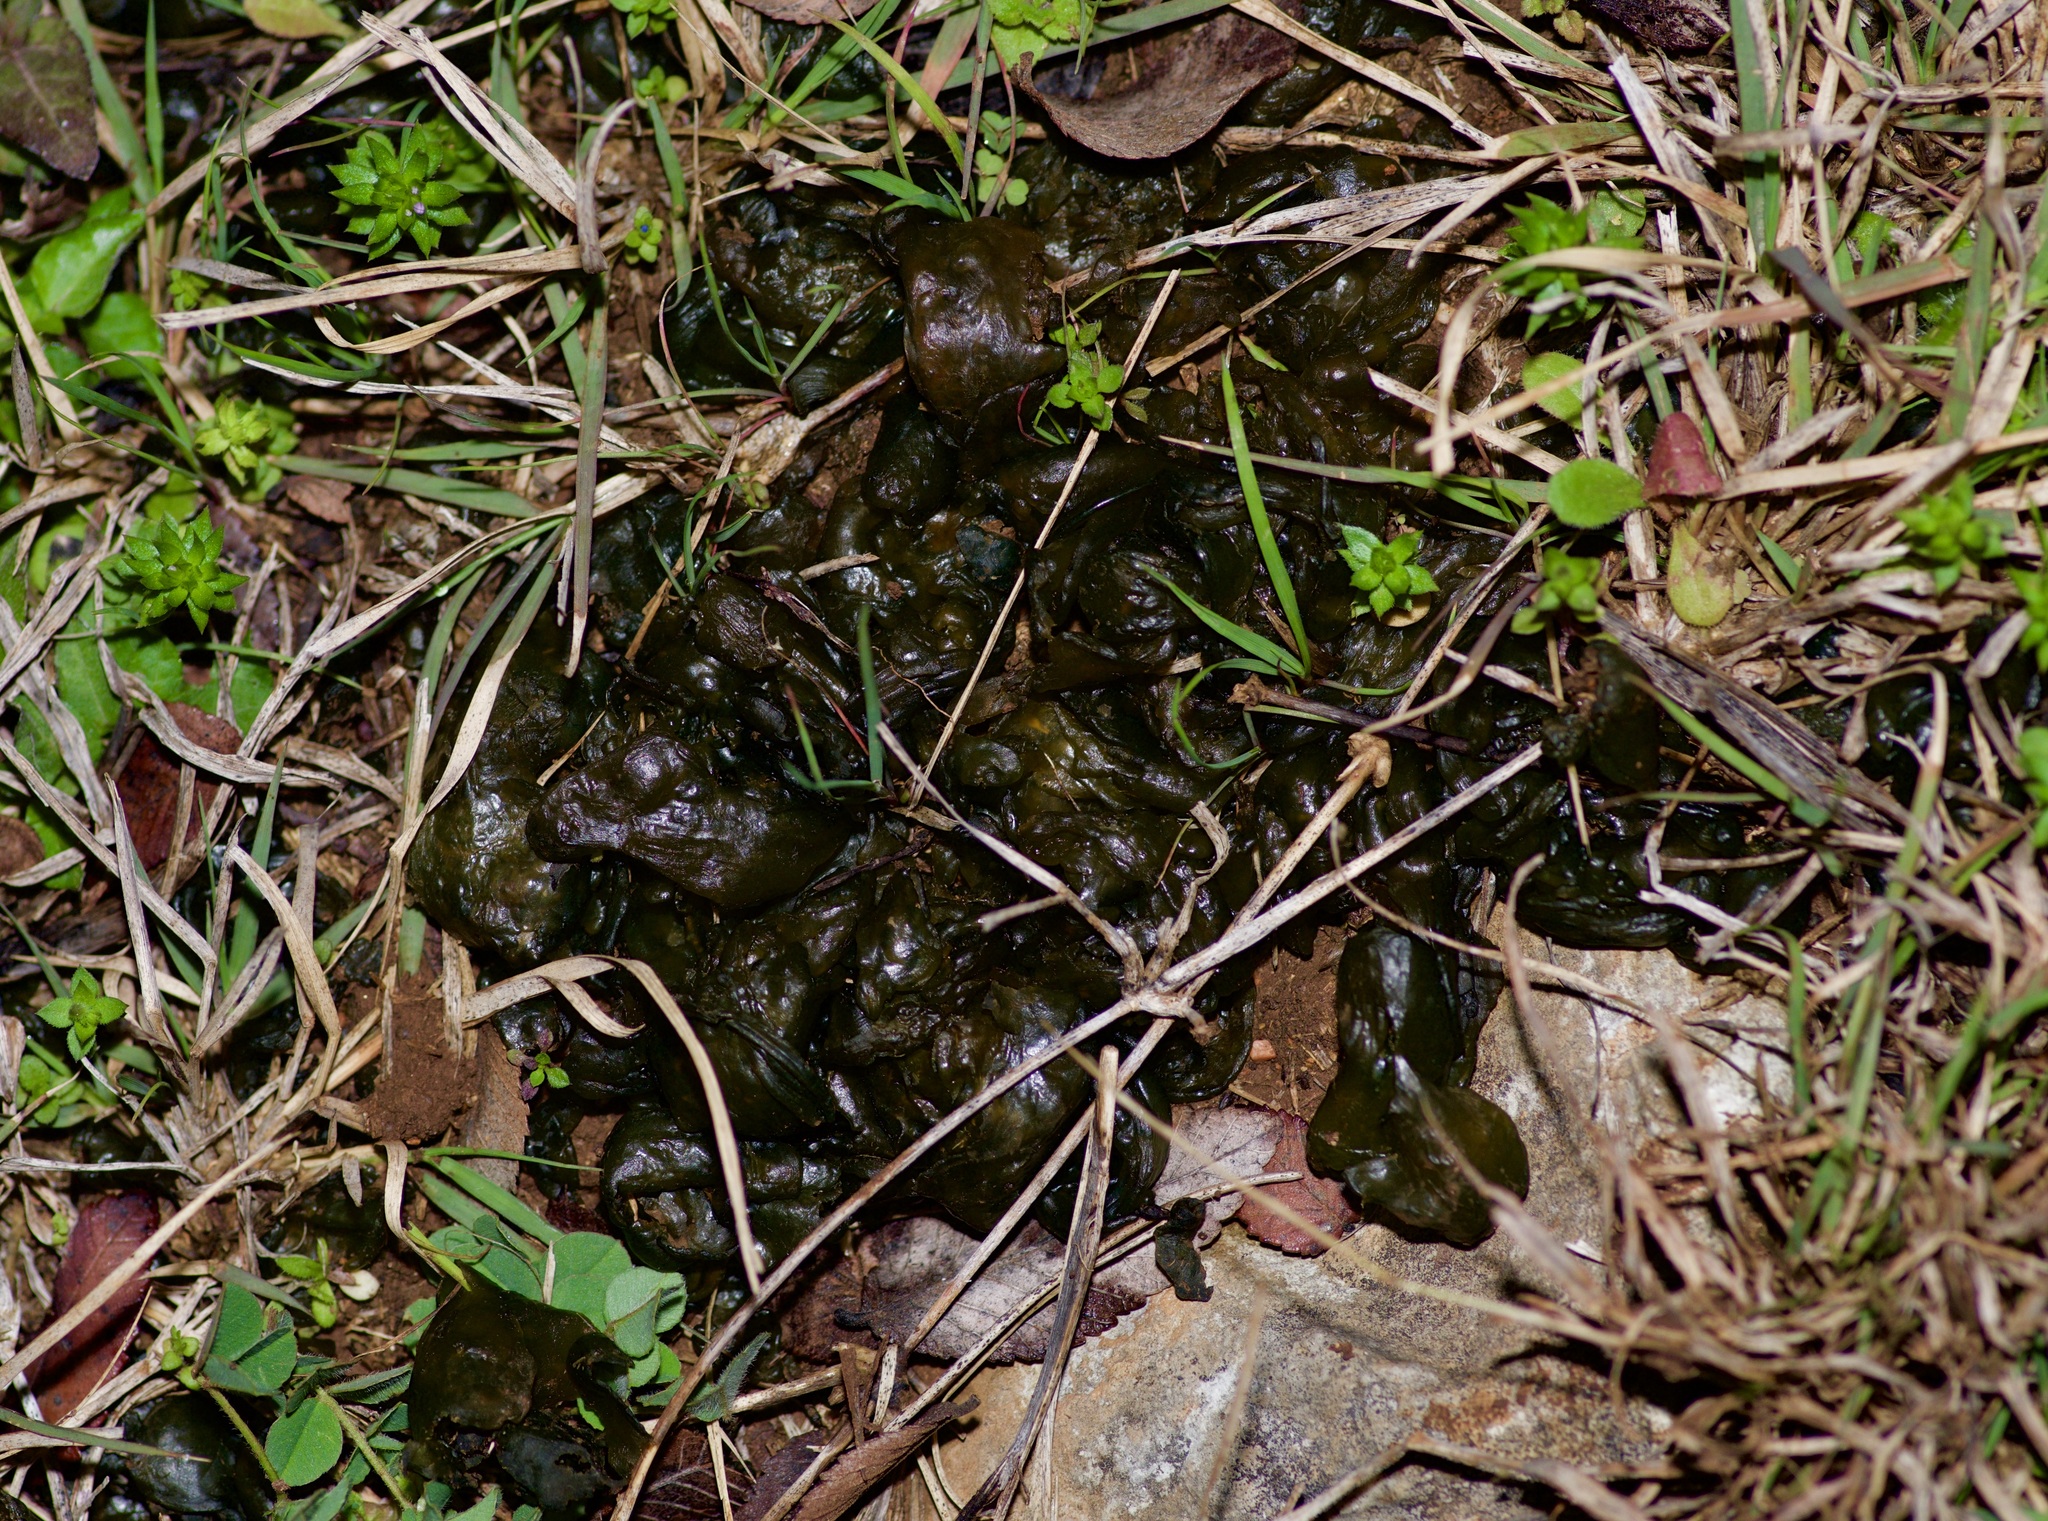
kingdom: Bacteria
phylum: Cyanobacteria
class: Cyanobacteriia
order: Cyanobacteriales
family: Nostocaceae
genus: Nostoc
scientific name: Nostoc commune
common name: Star jelly
